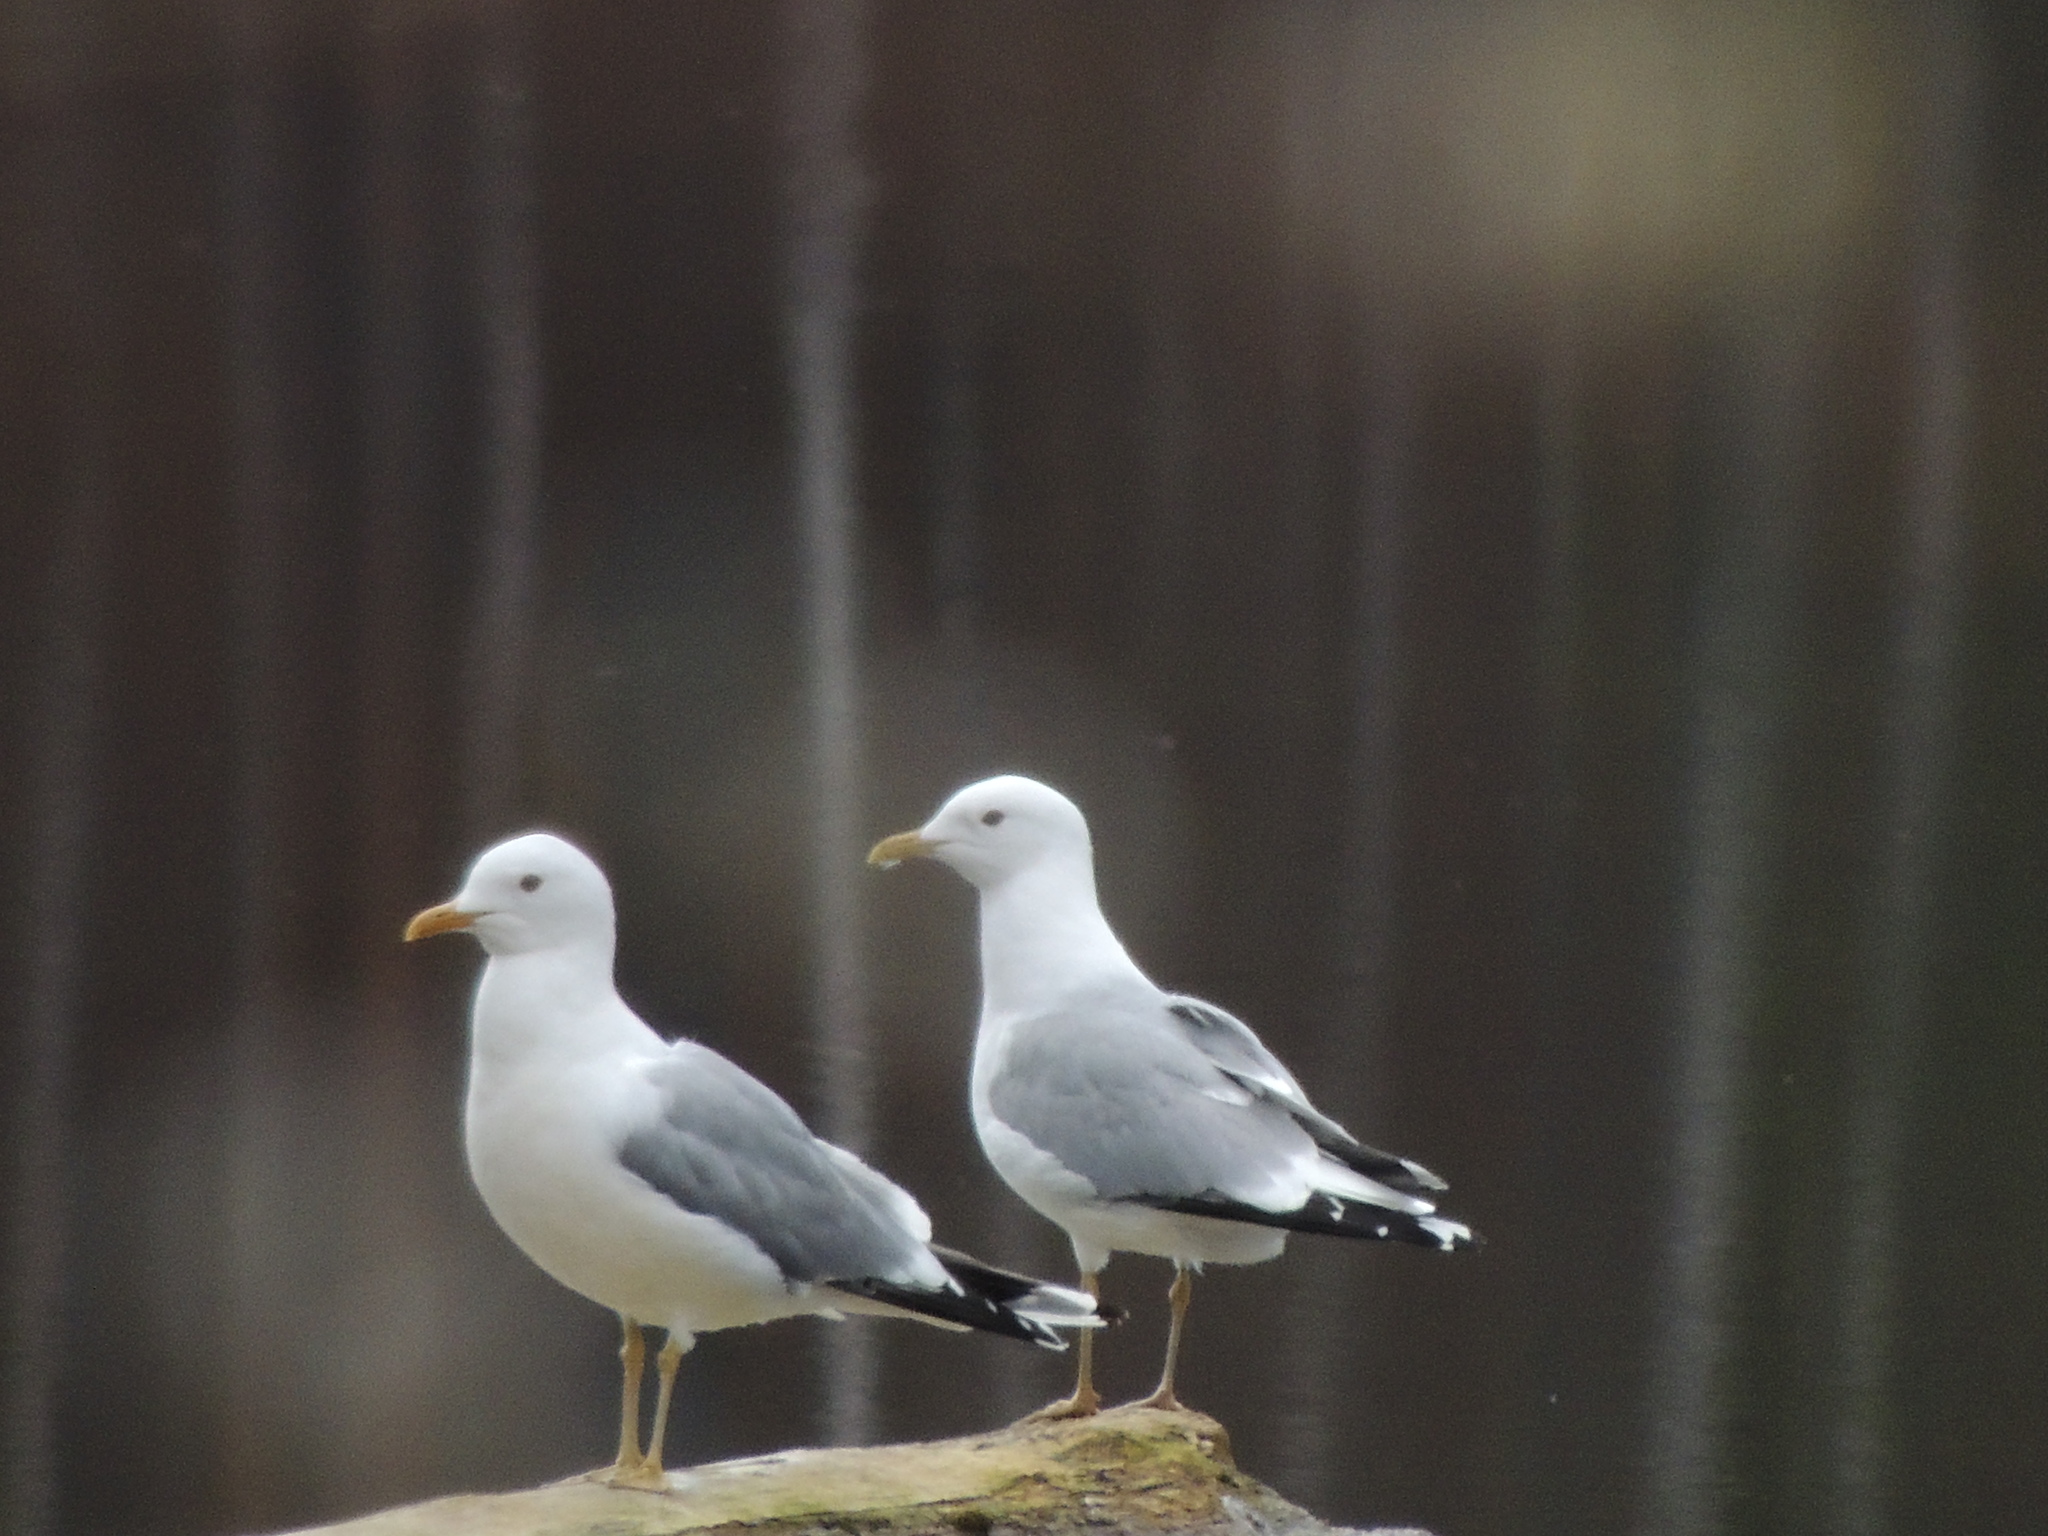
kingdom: Animalia
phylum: Chordata
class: Aves
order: Charadriiformes
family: Laridae
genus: Larus
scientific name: Larus canus
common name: Mew gull
